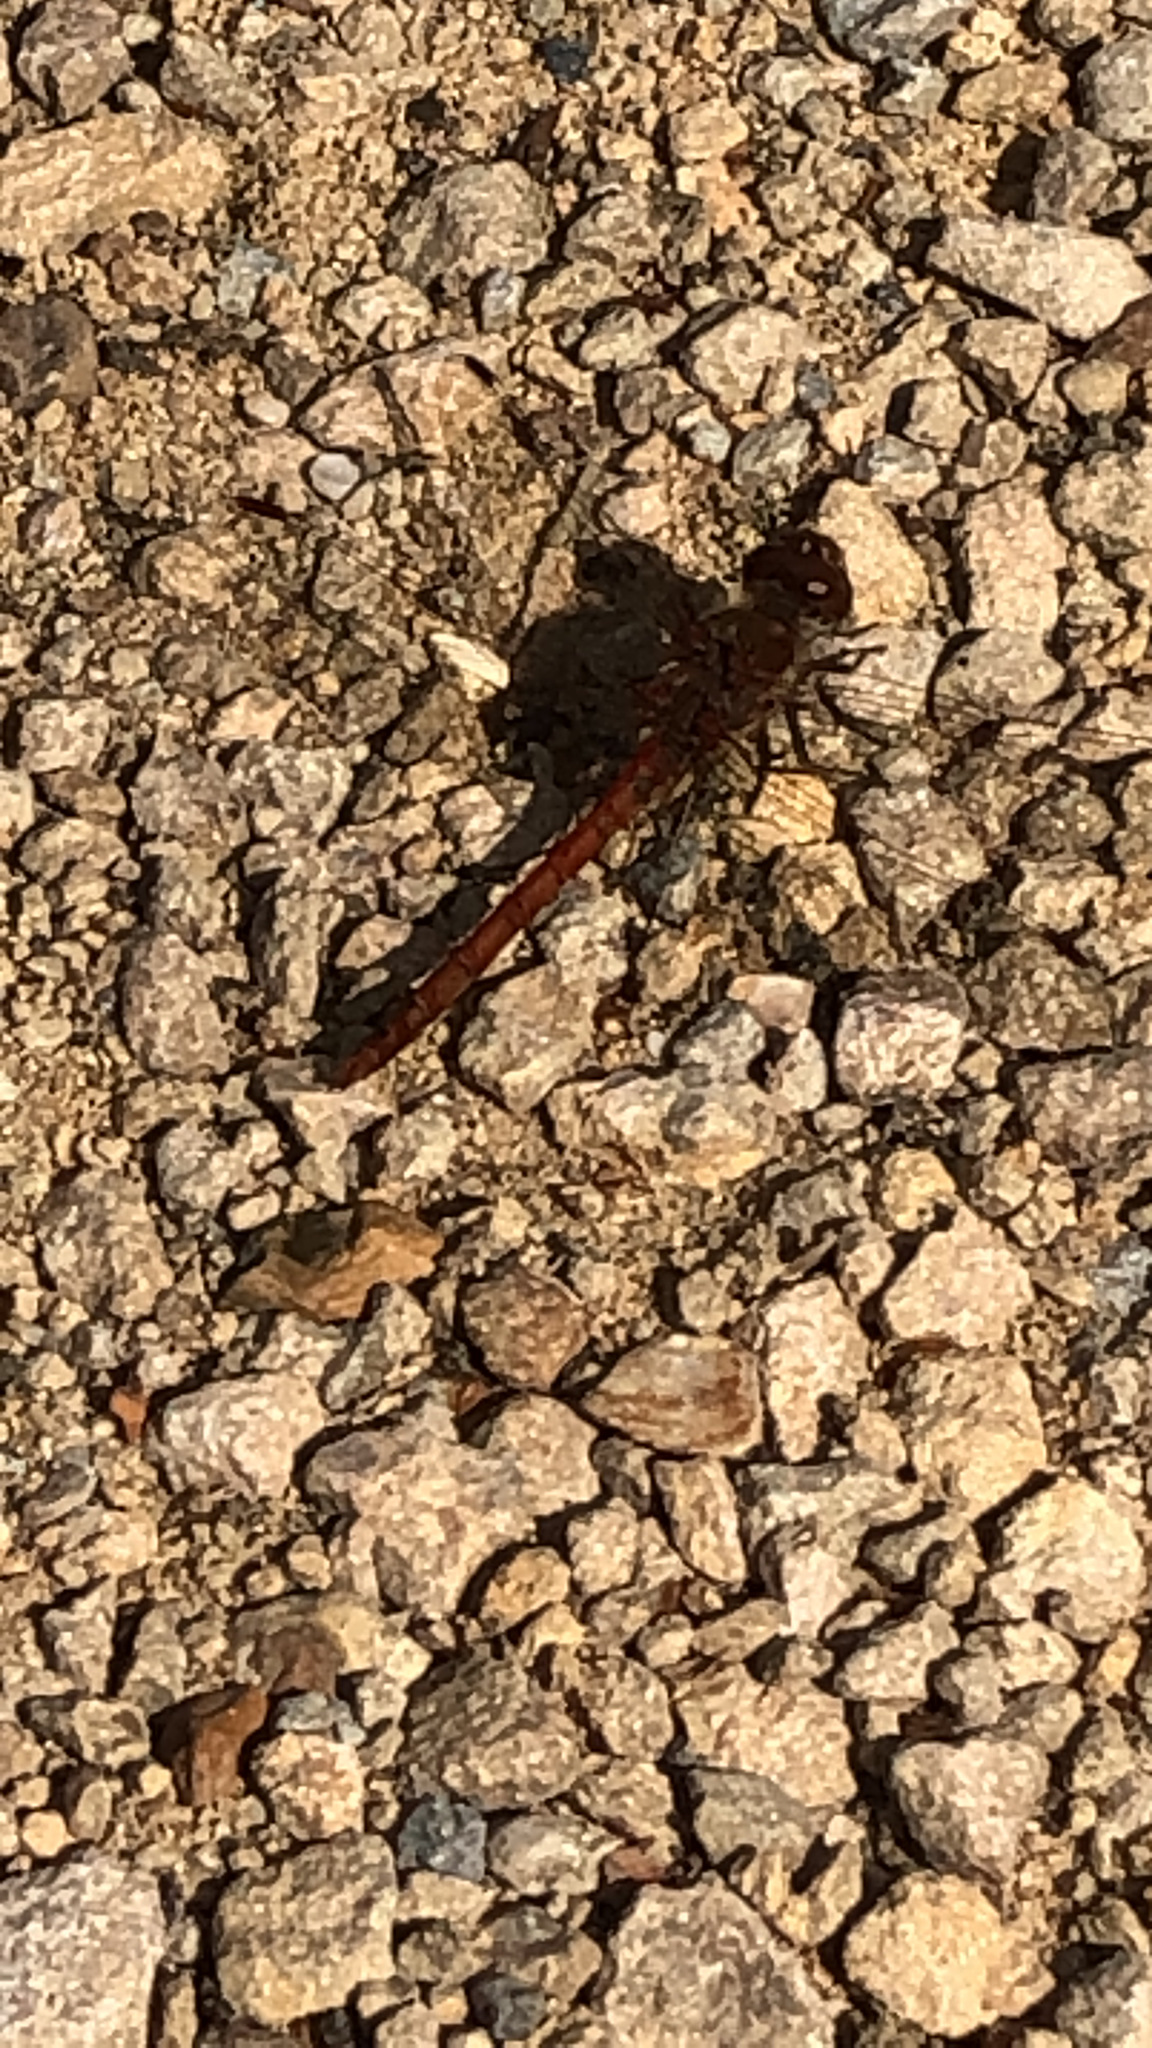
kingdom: Animalia
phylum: Arthropoda
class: Insecta
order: Odonata
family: Libellulidae
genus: Sympetrum
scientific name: Sympetrum striolatum
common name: Common darter
